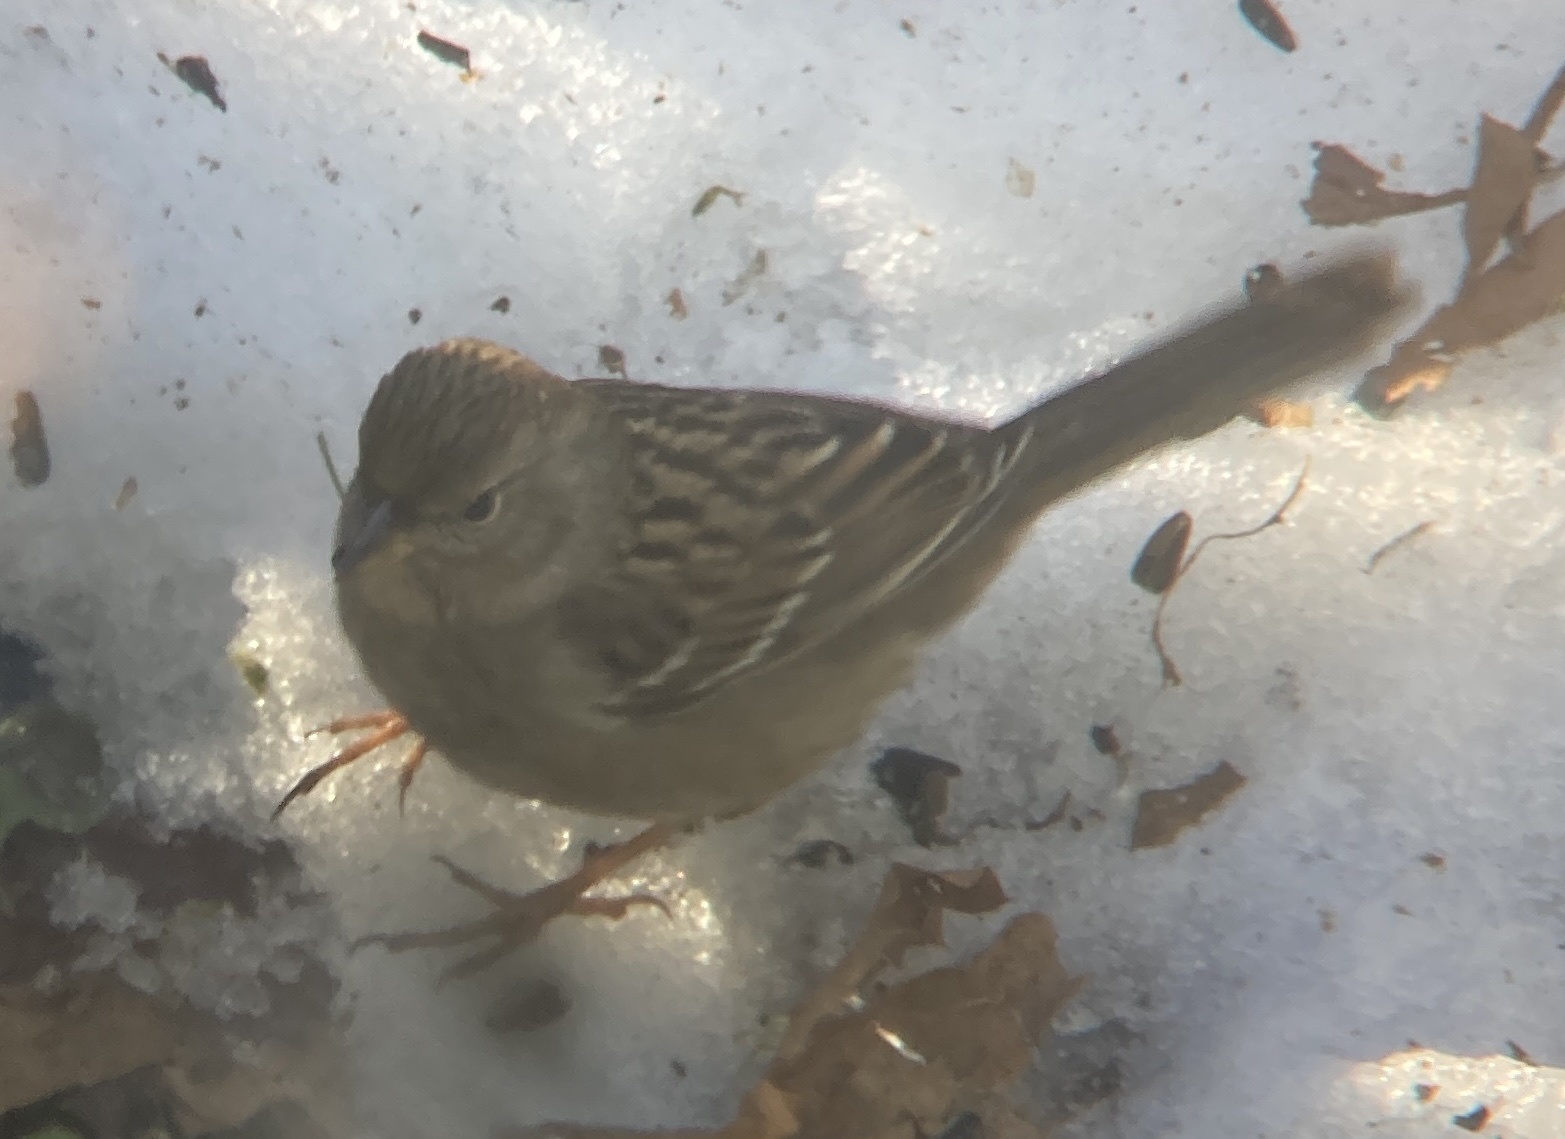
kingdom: Animalia
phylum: Chordata
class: Aves
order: Passeriformes
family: Passerellidae
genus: Zonotrichia
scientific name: Zonotrichia atricapilla
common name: Golden-crowned sparrow
